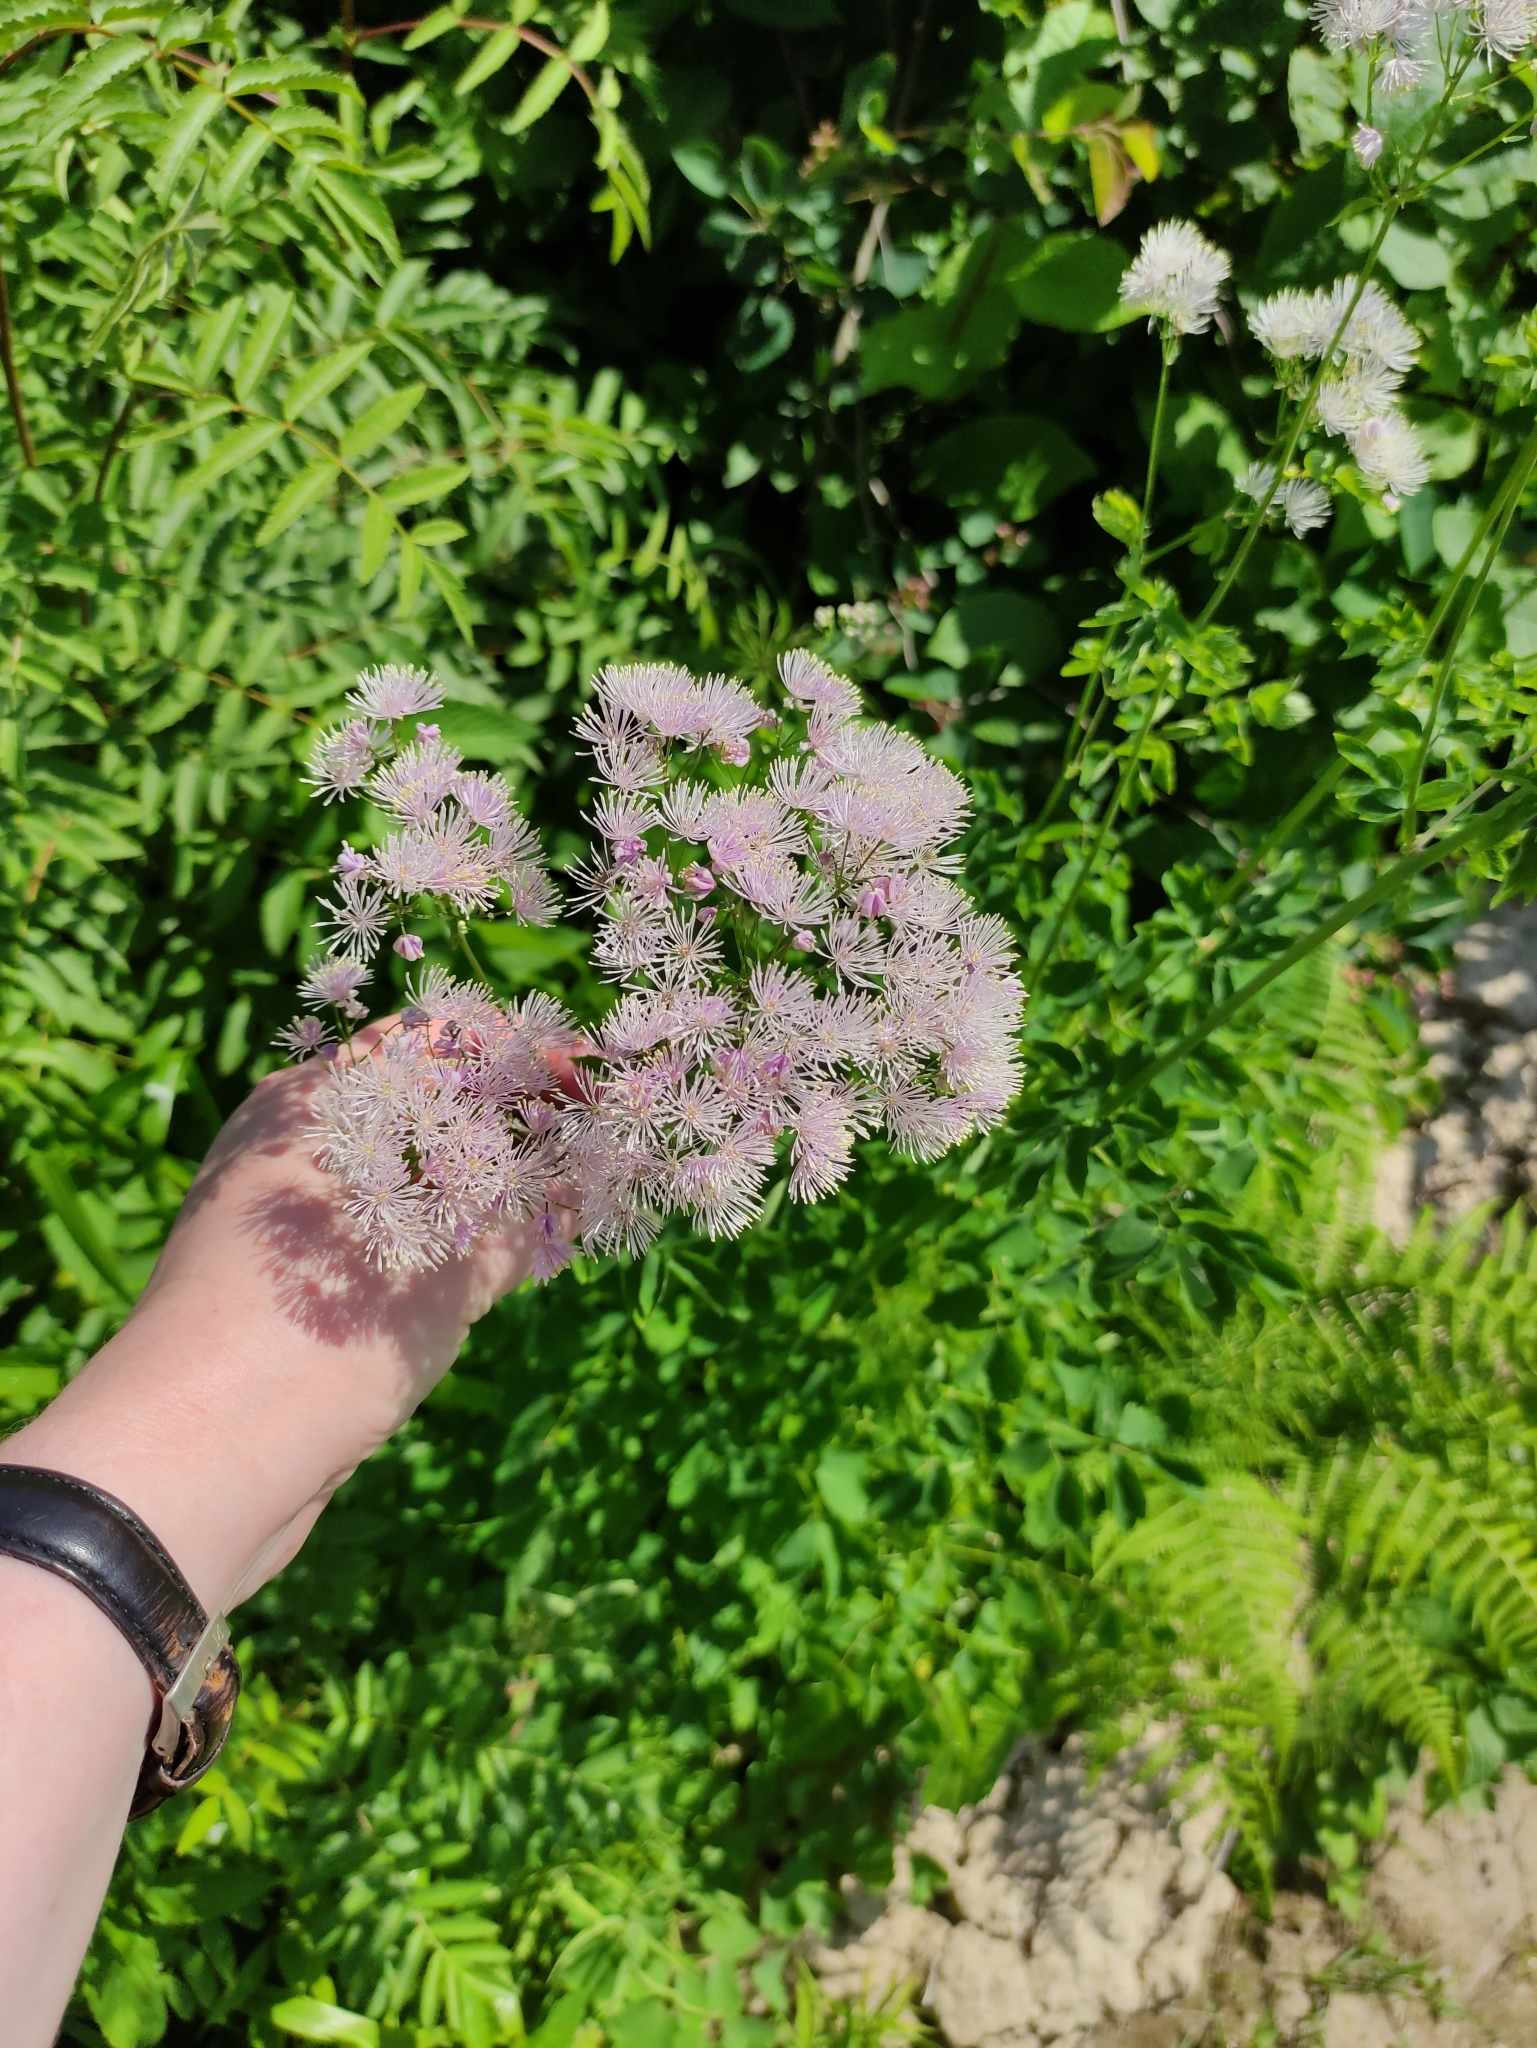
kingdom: Plantae
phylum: Tracheophyta
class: Magnoliopsida
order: Ranunculales
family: Ranunculaceae
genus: Thalictrum
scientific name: Thalictrum aquilegiifolium
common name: French meadow-rue
